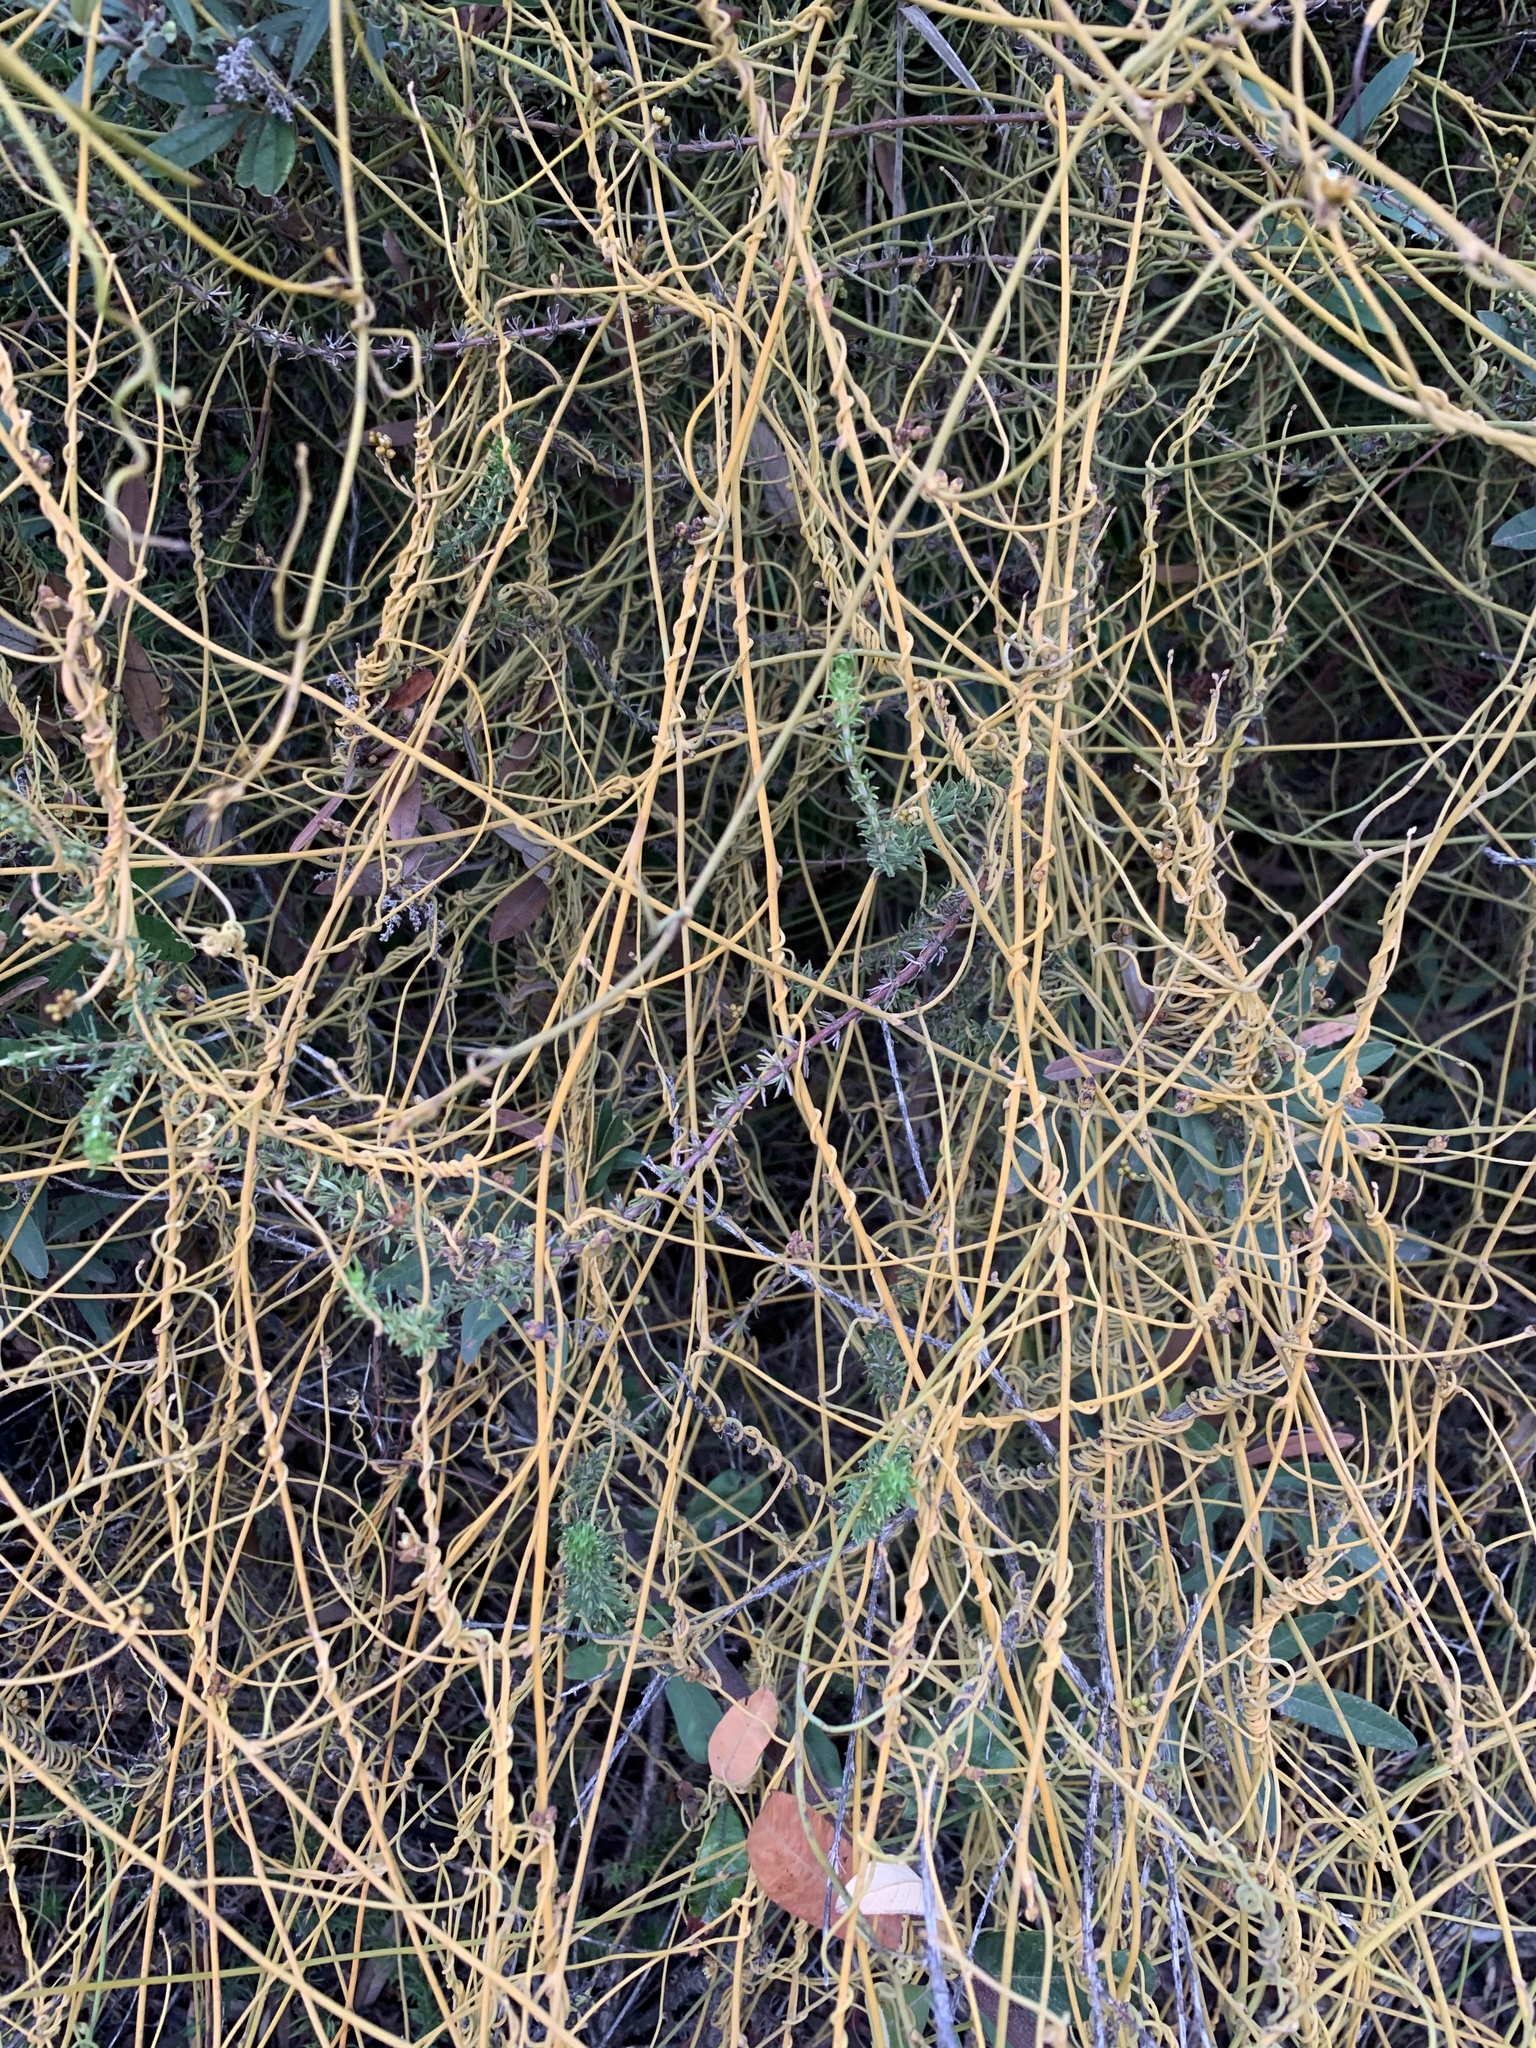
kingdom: Plantae
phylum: Tracheophyta
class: Magnoliopsida
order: Laurales
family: Lauraceae
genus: Cassytha
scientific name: Cassytha ciliolata
